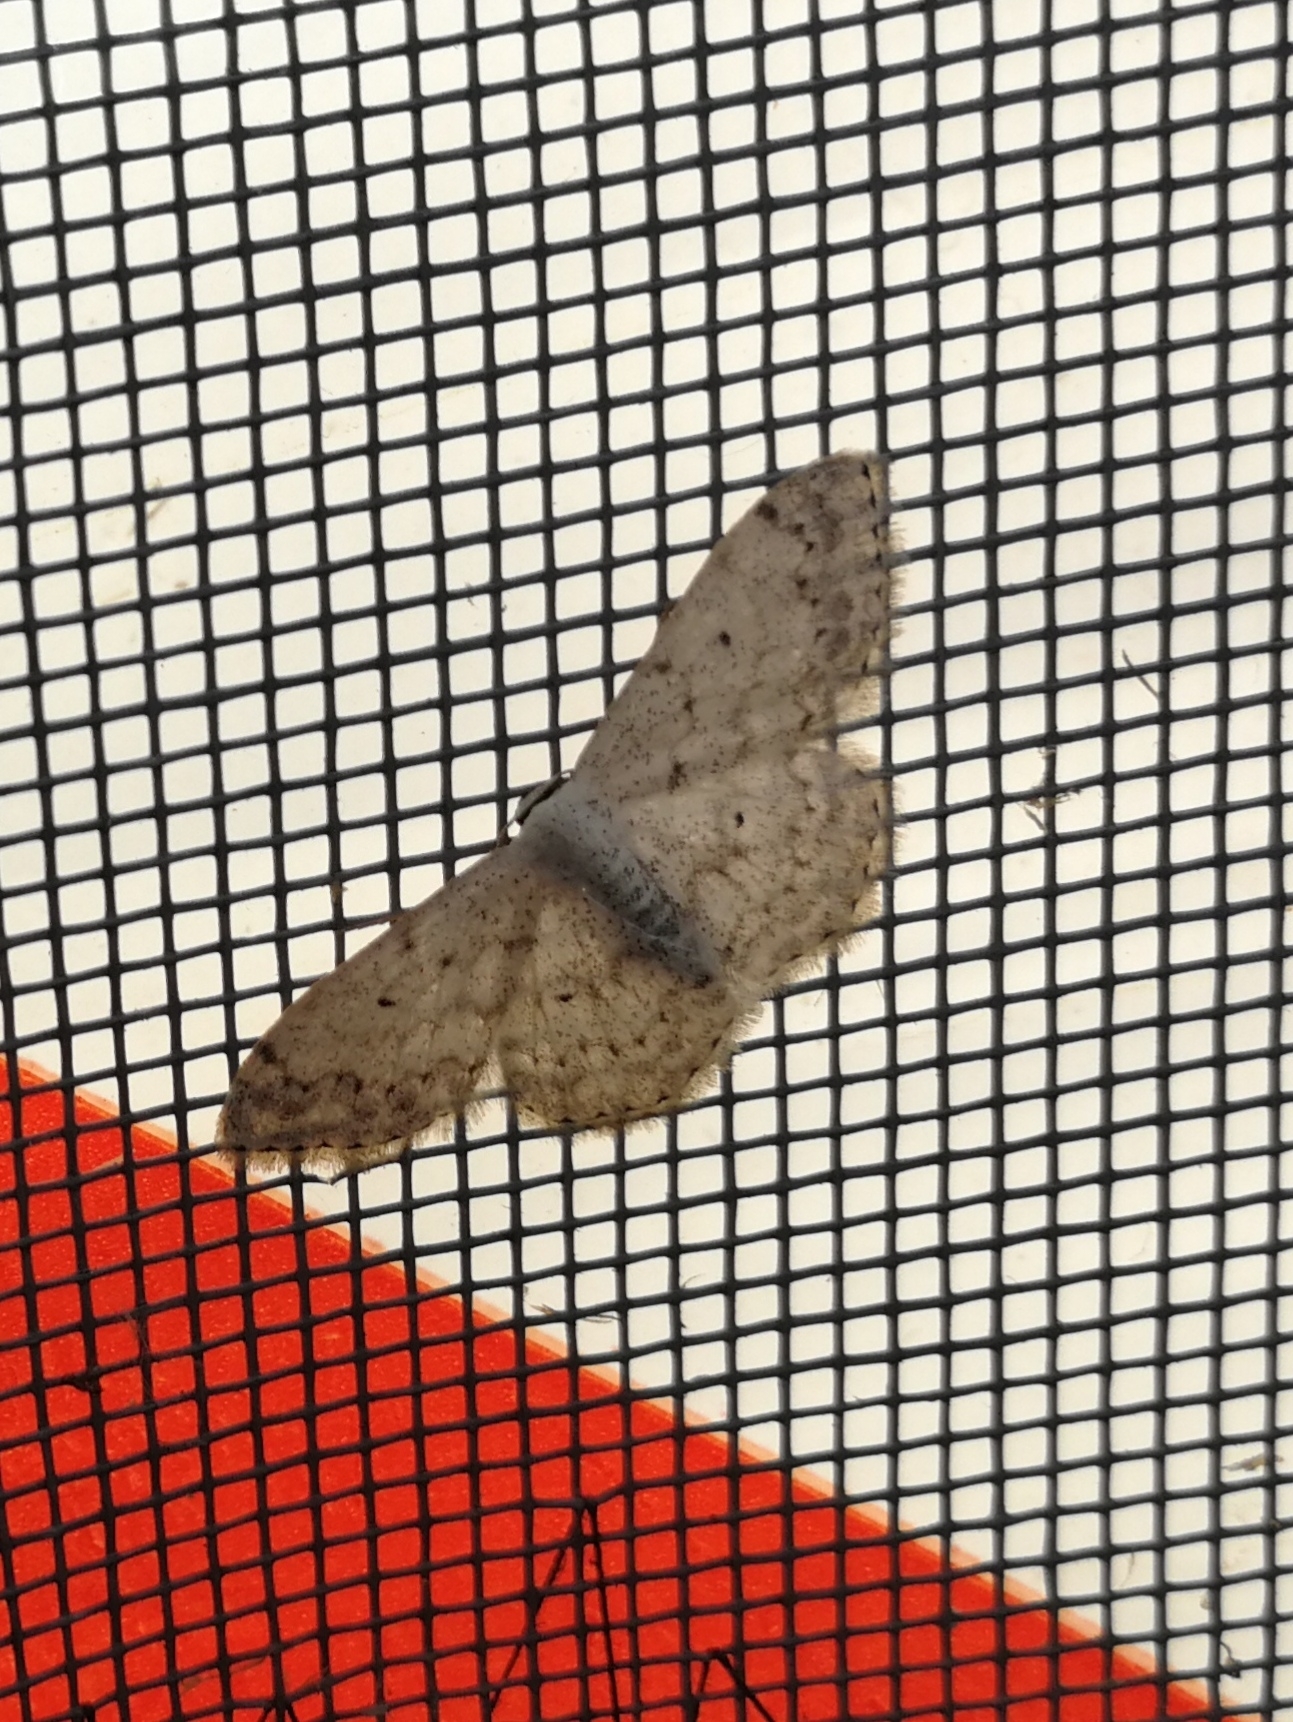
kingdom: Animalia
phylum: Arthropoda
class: Insecta
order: Lepidoptera
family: Geometridae
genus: Scopula
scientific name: Scopula marginepunctata
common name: Mullein wave
